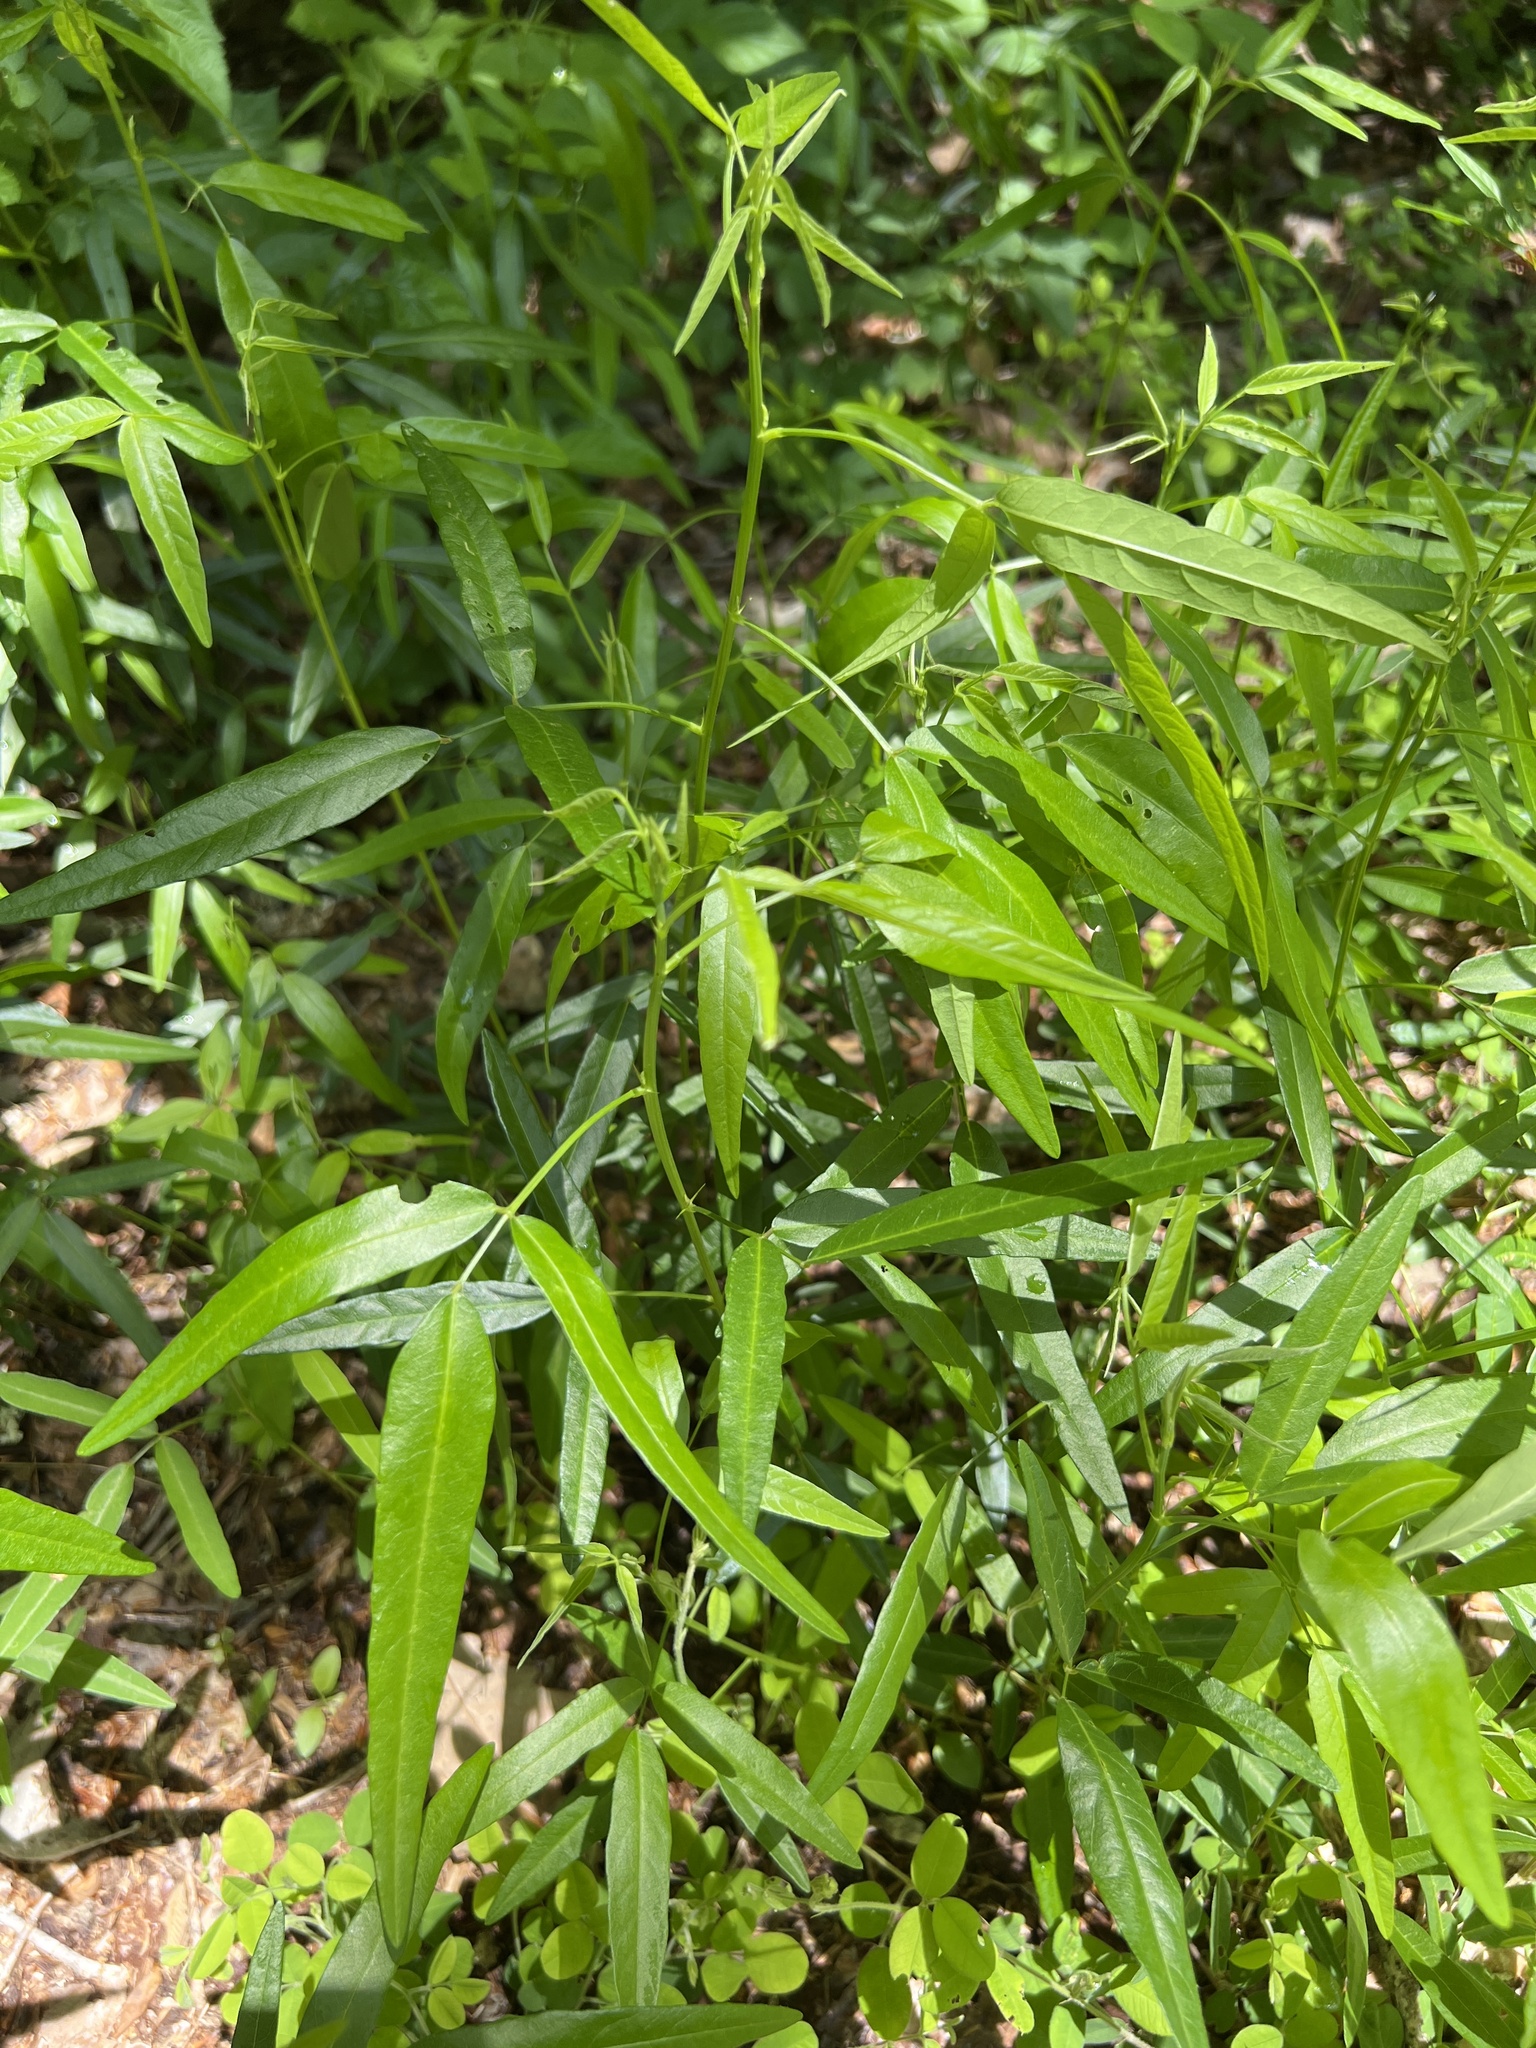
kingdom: Plantae
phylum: Tracheophyta
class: Magnoliopsida
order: Fabales
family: Fabaceae
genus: Desmodium
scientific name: Desmodium paniculatum
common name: Panicled tick-clover
